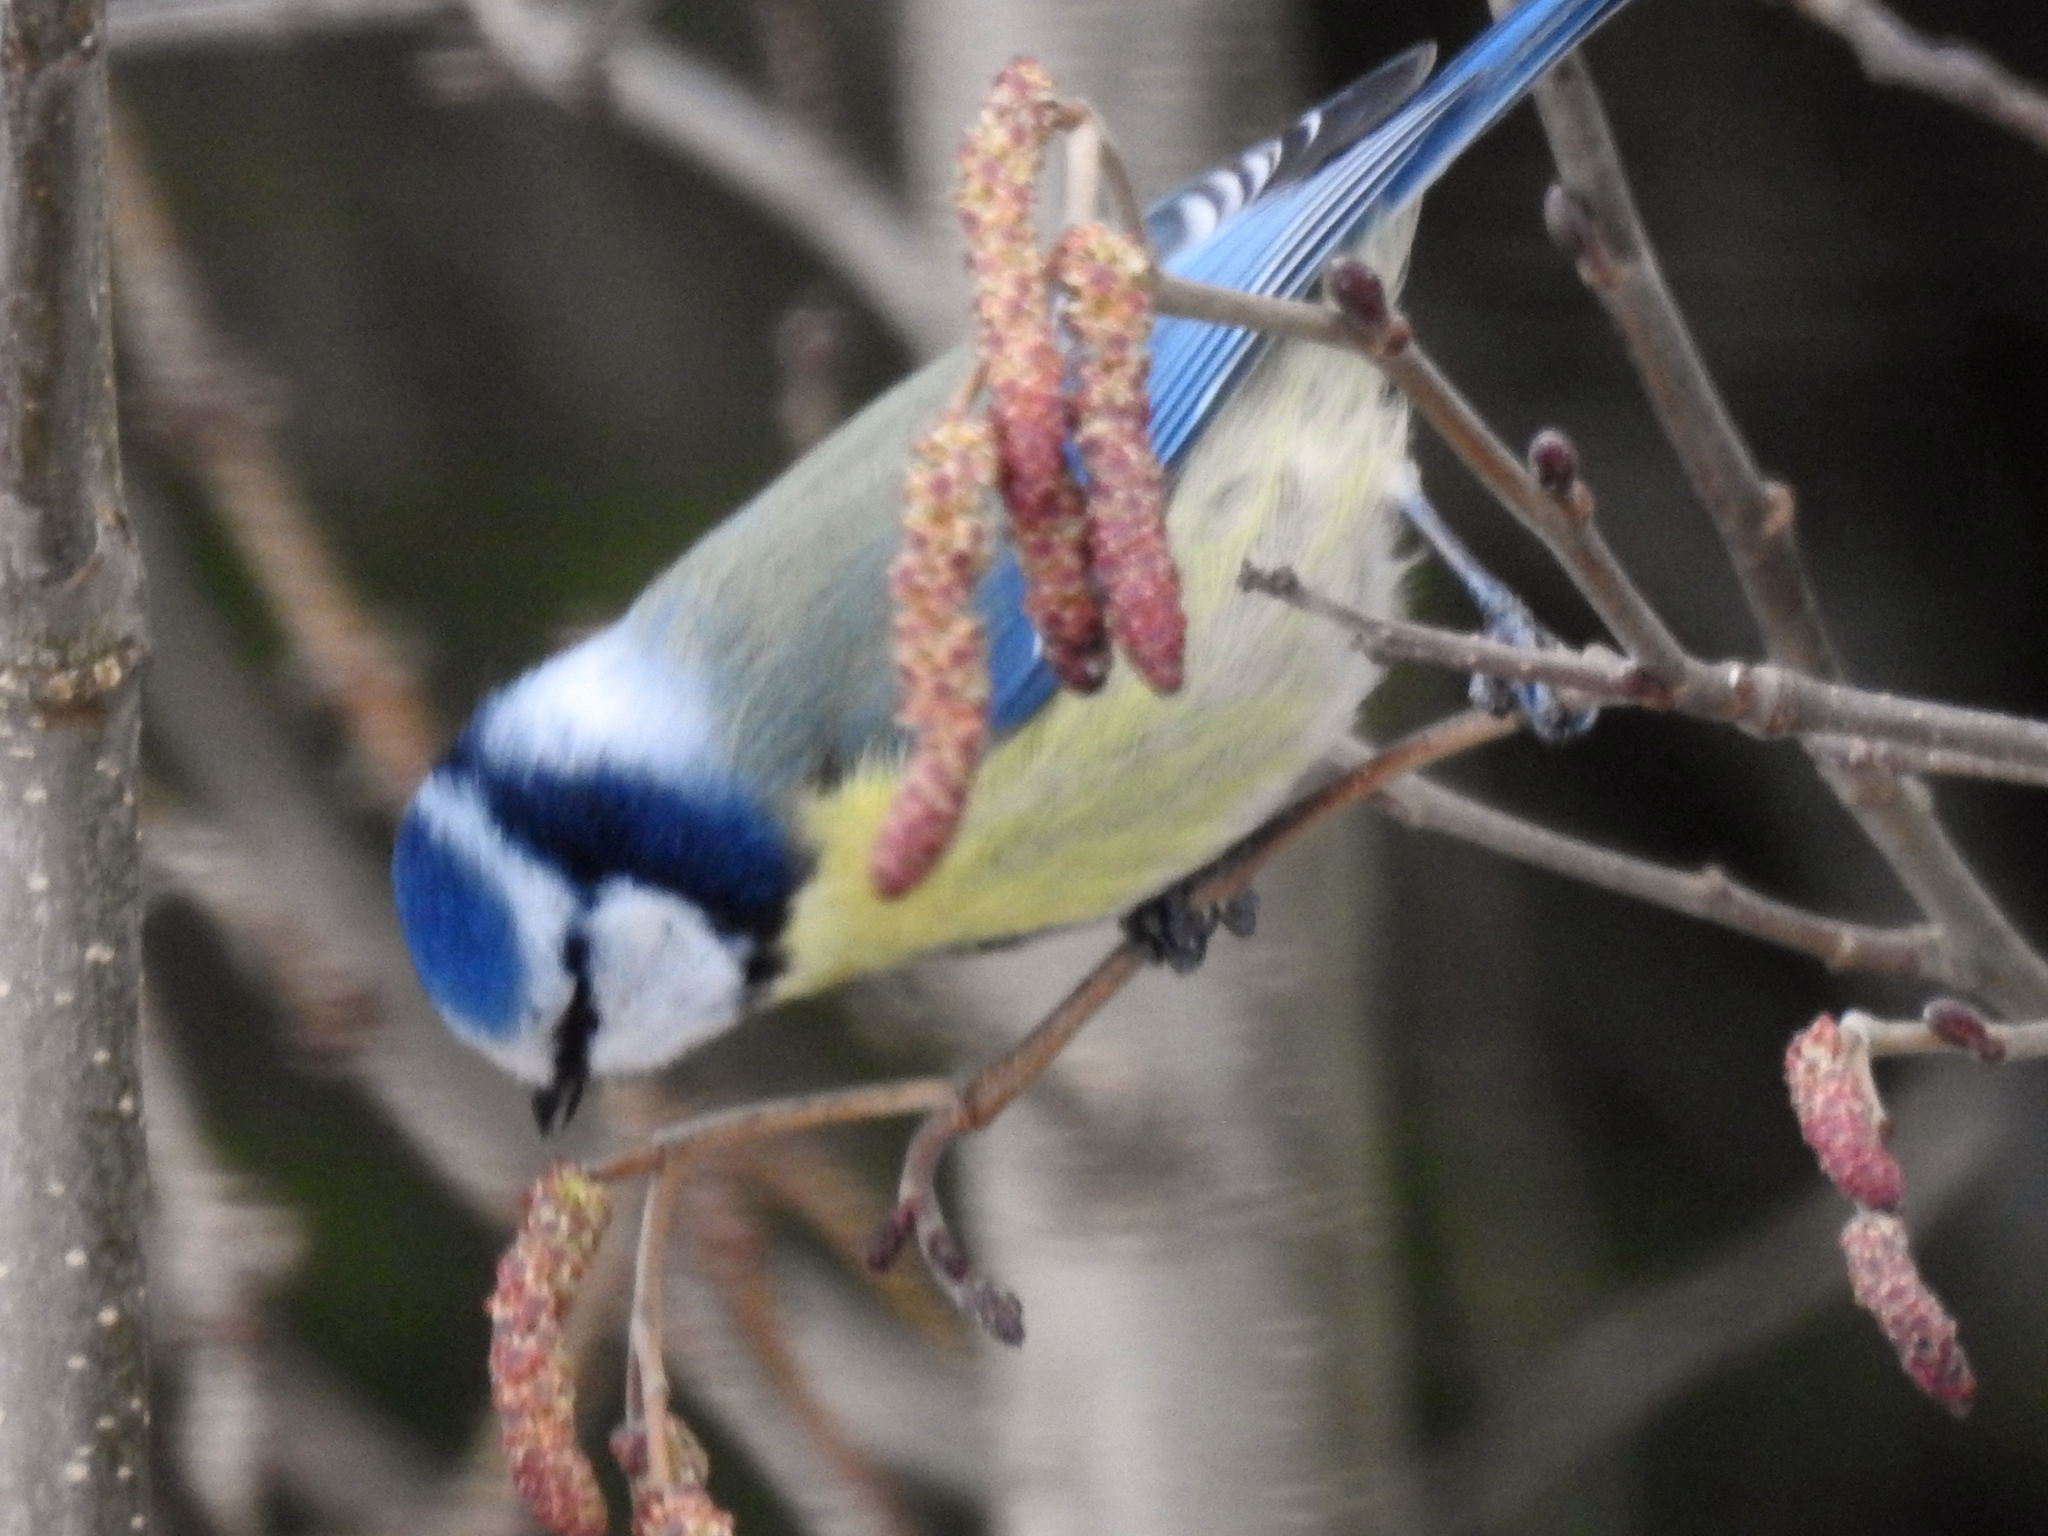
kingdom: Animalia
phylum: Chordata
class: Aves
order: Passeriformes
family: Paridae
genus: Cyanistes
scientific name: Cyanistes caeruleus
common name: Eurasian blue tit
